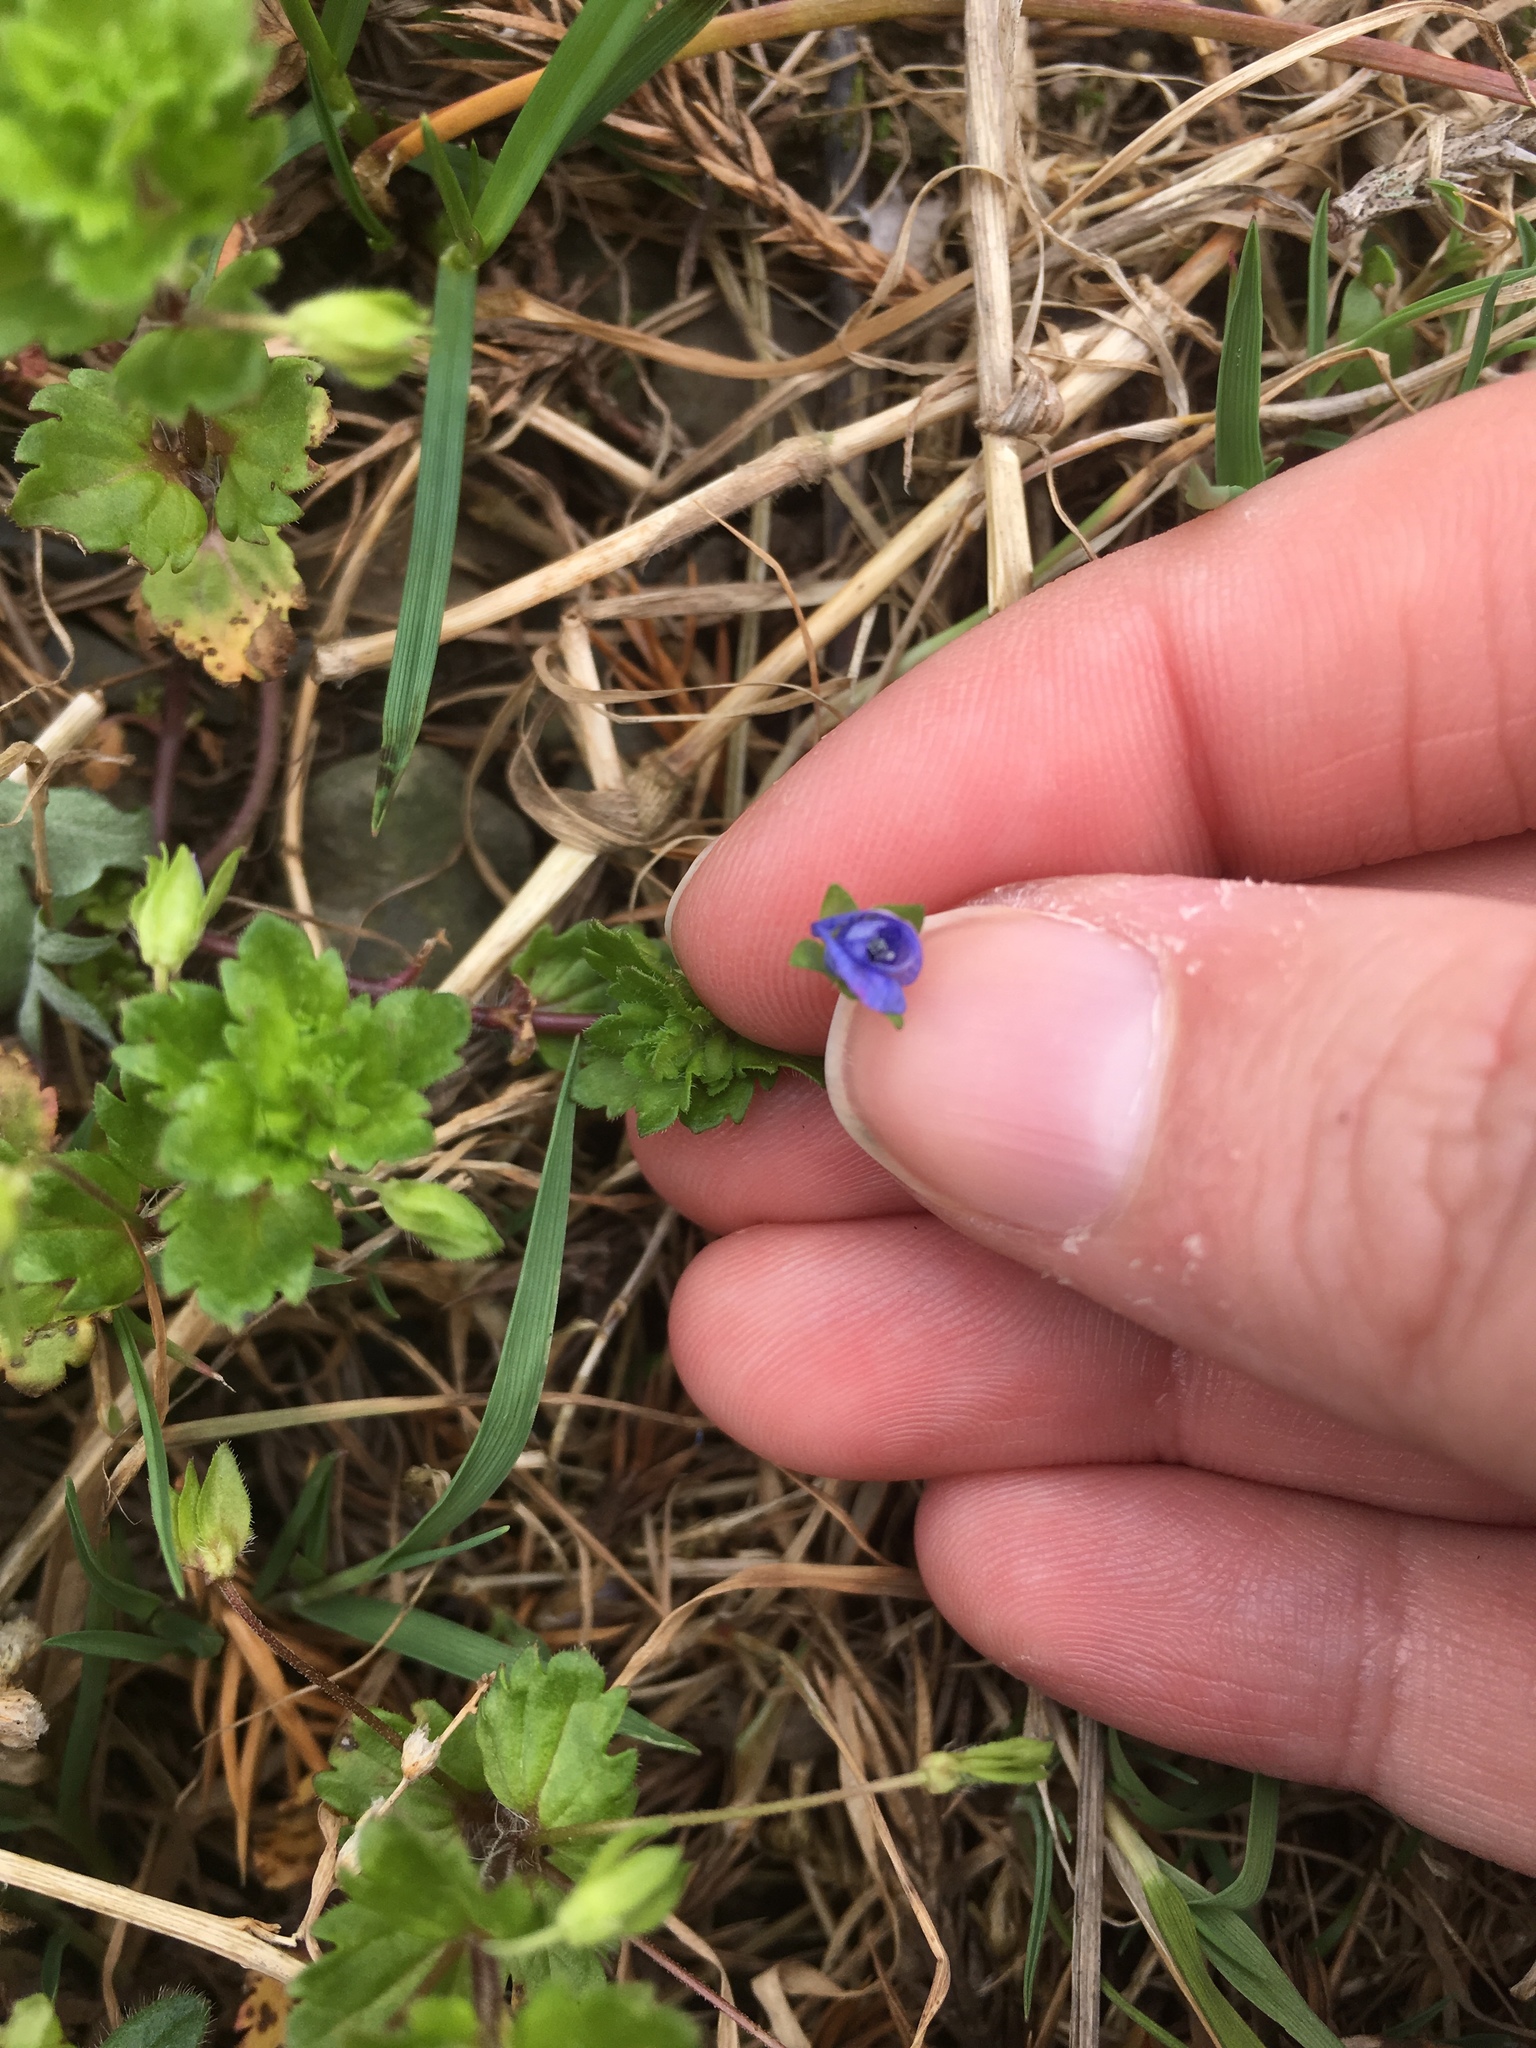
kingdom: Plantae
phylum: Tracheophyta
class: Magnoliopsida
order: Lamiales
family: Plantaginaceae
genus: Veronica
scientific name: Veronica persica
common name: Common field-speedwell
